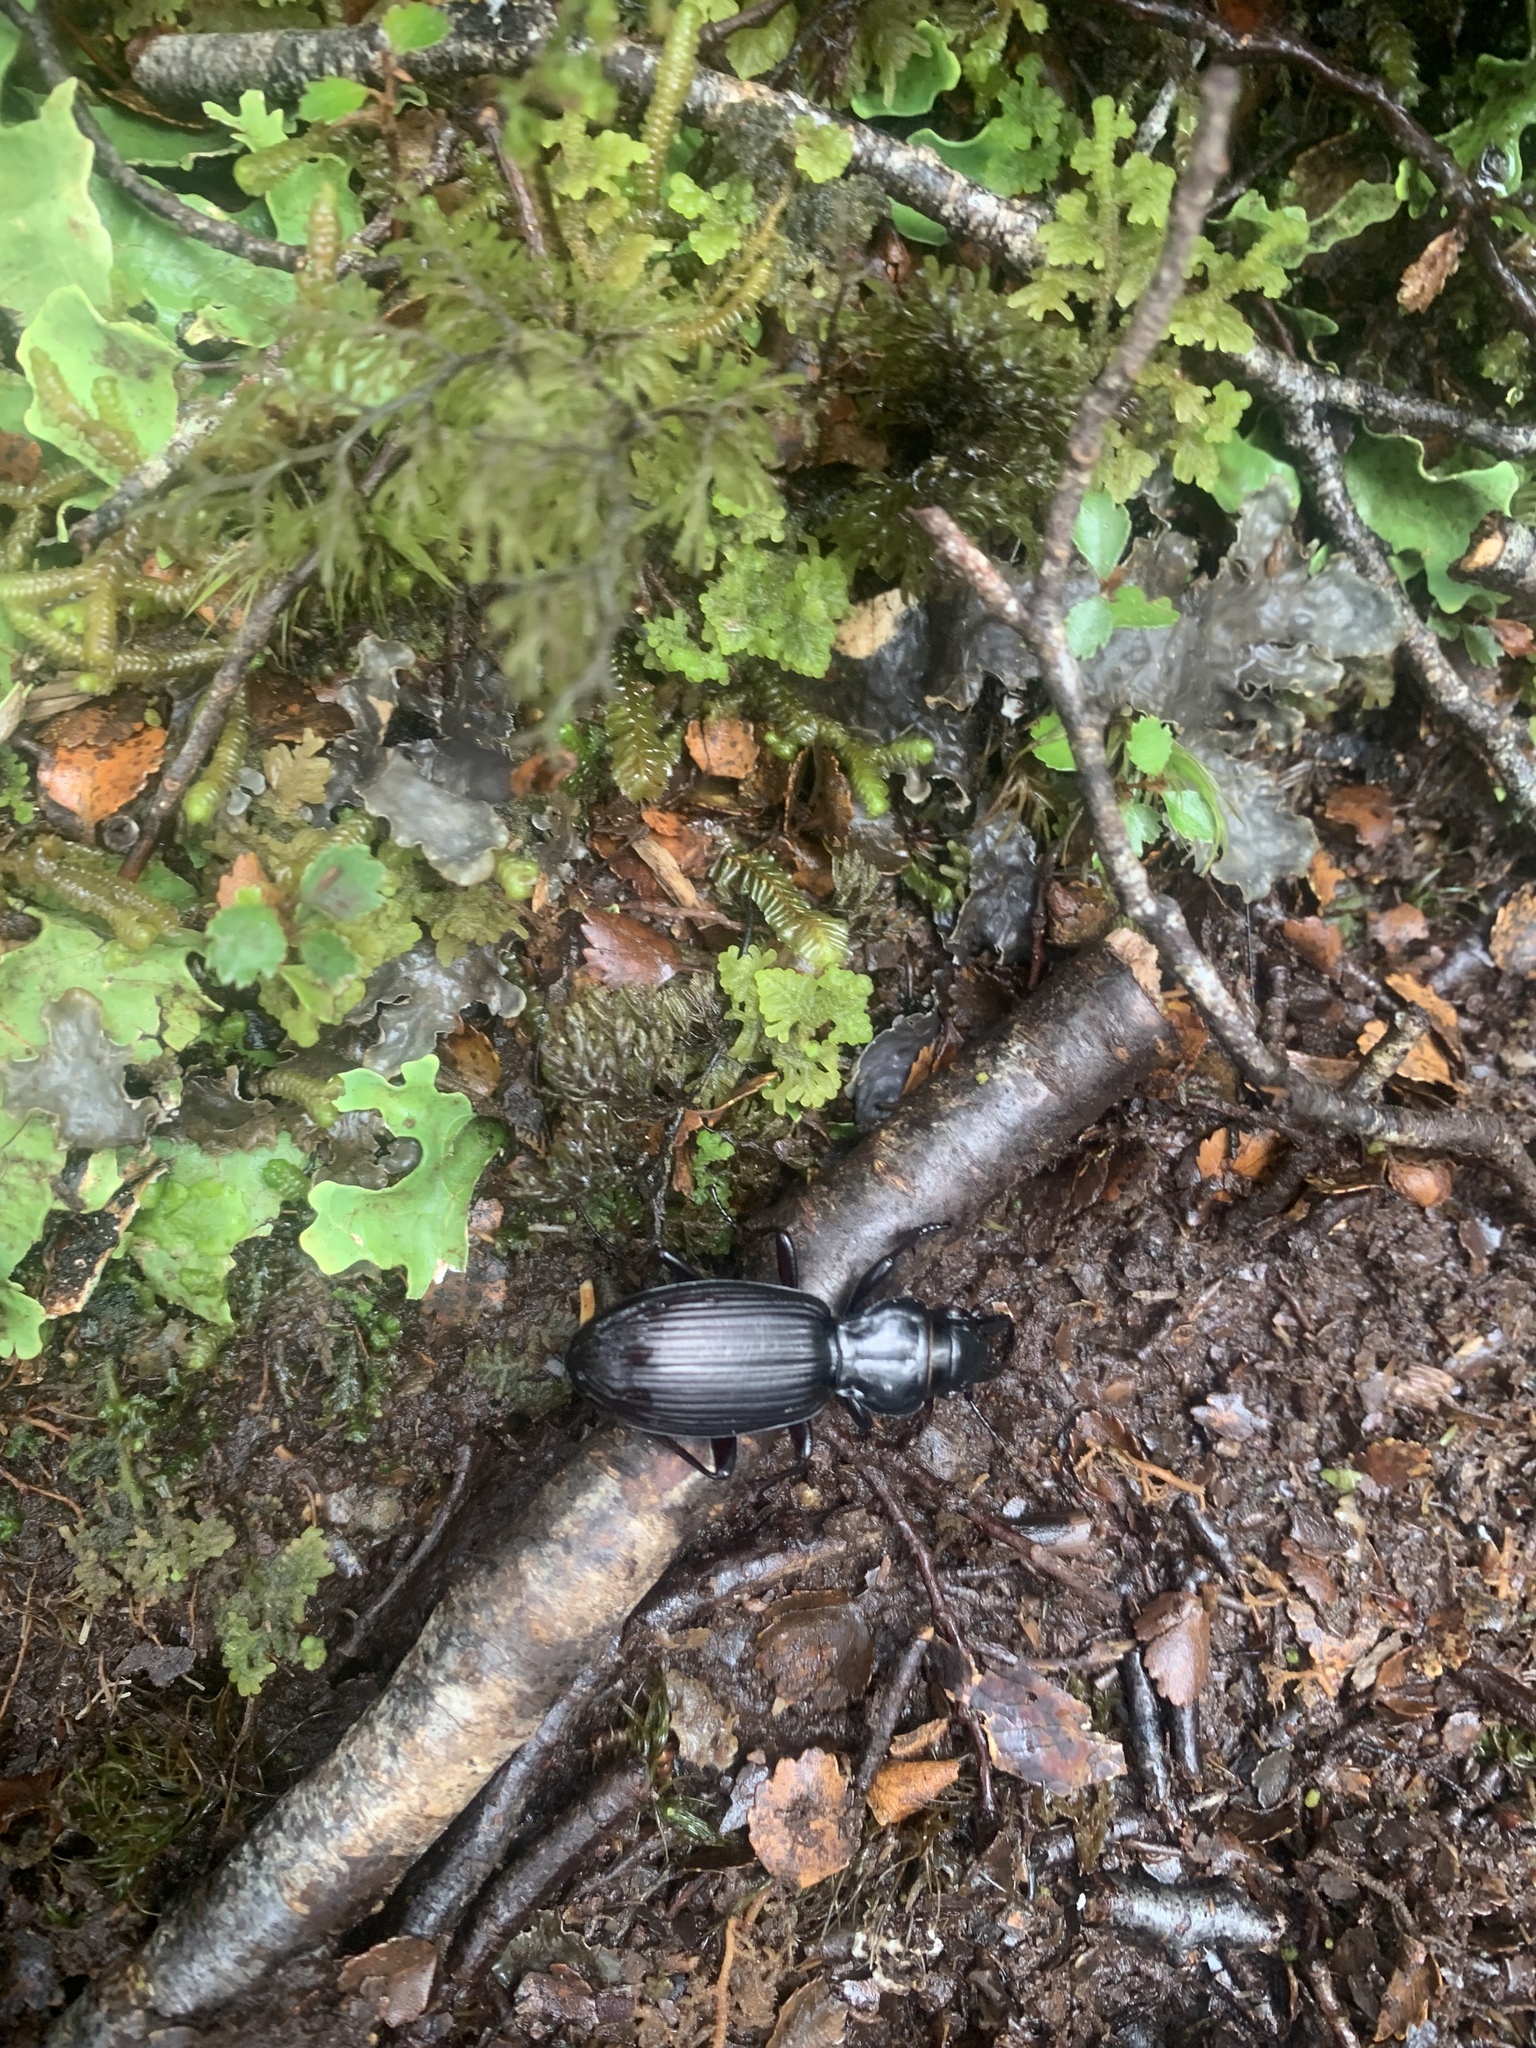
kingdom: Animalia
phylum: Arthropoda
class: Insecta
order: Coleoptera
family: Carabidae
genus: Mecodema
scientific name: Mecodema rex
